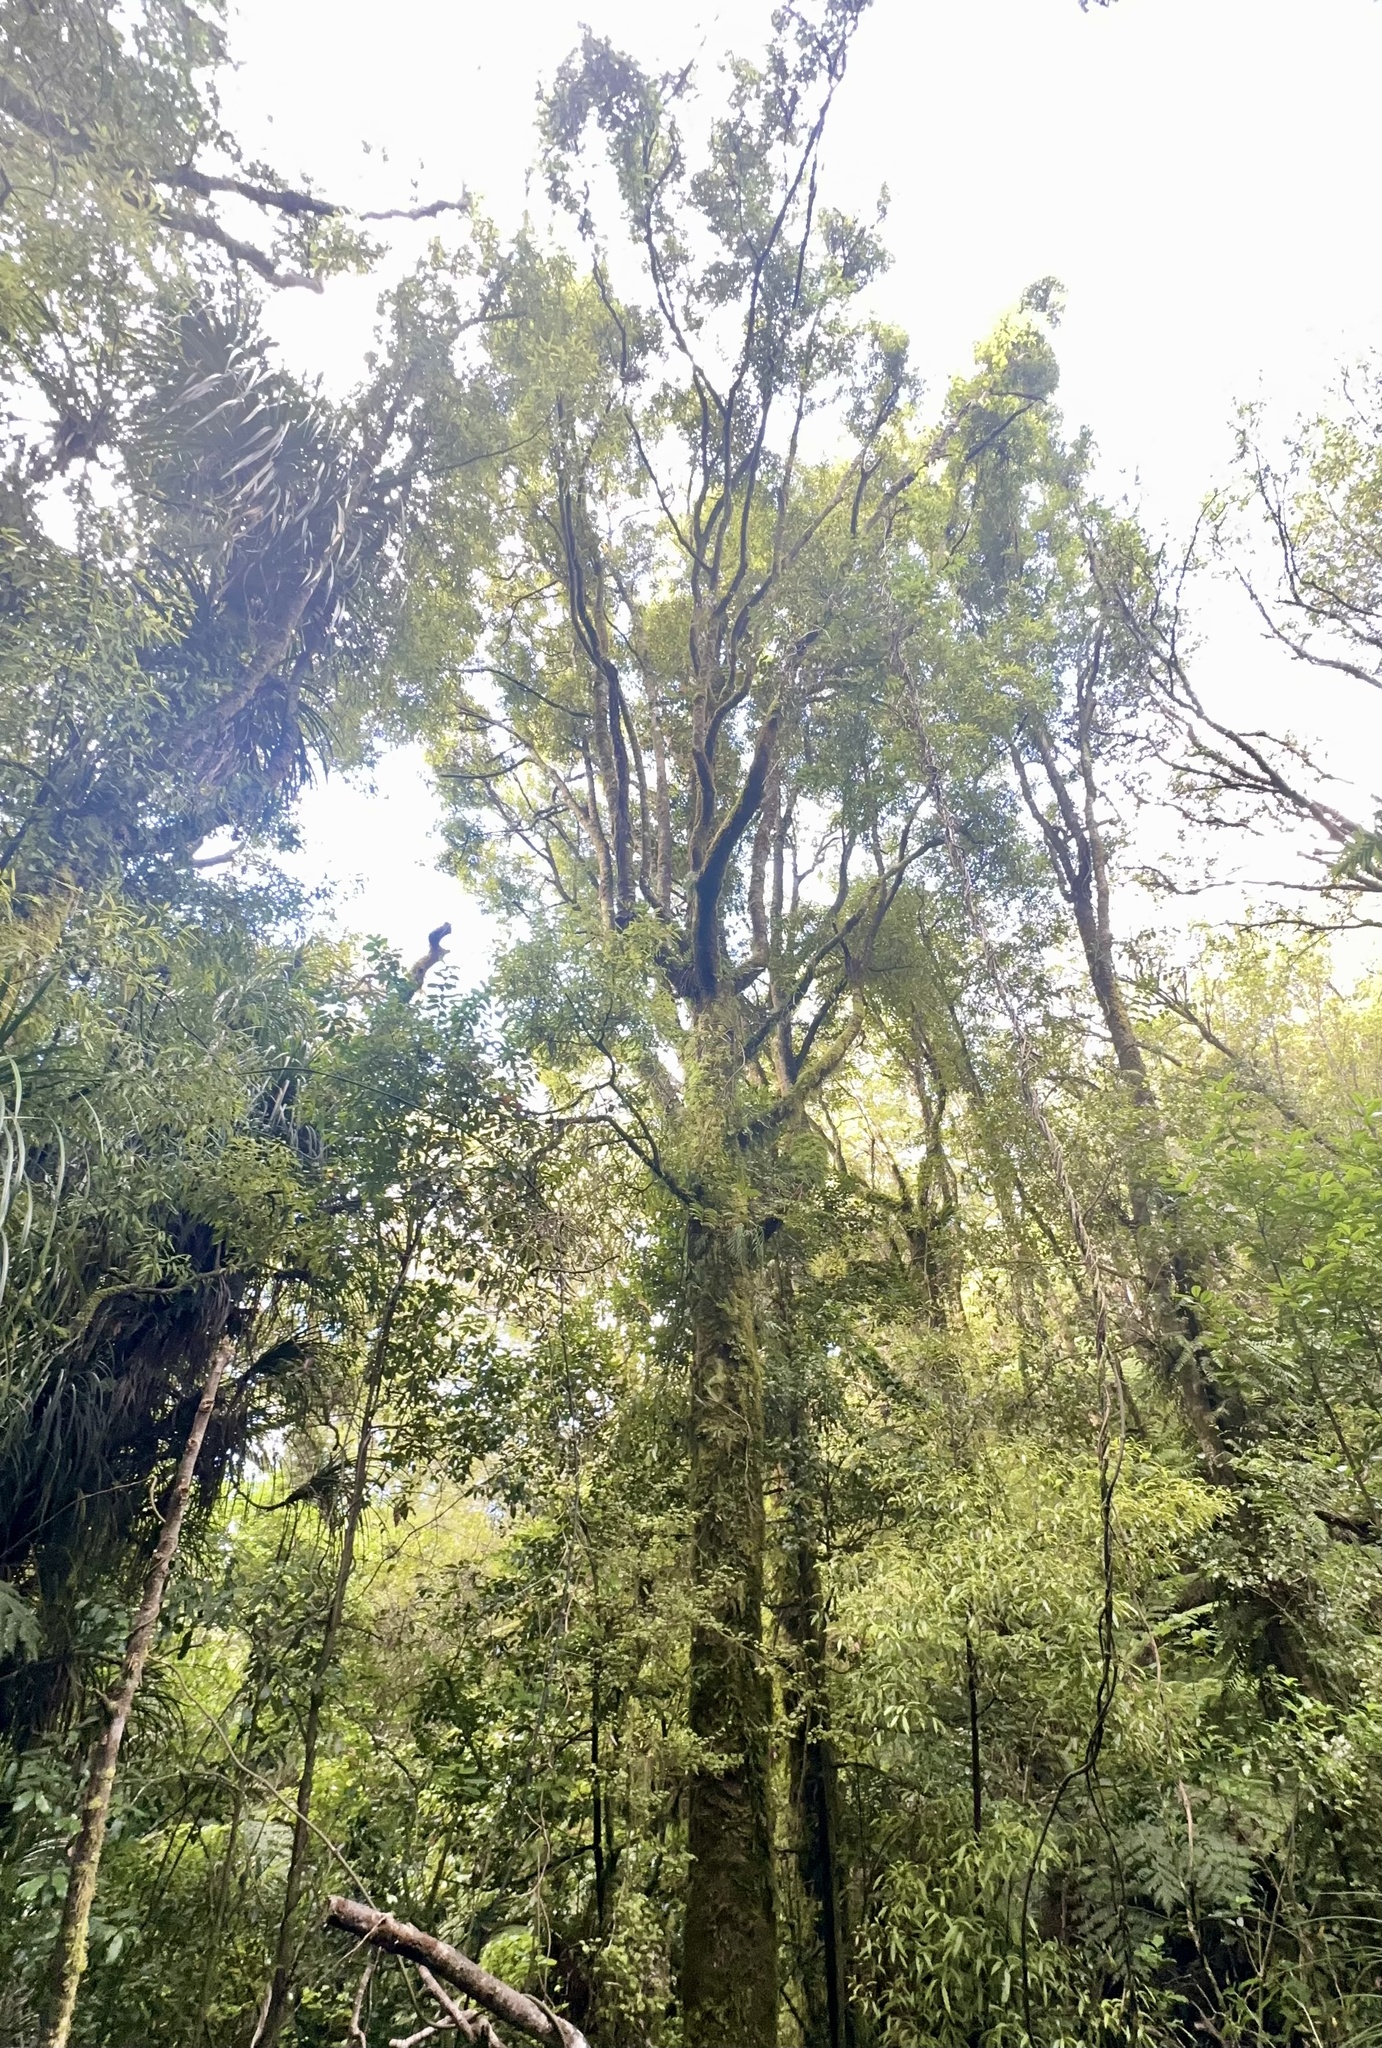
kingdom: Plantae
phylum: Tracheophyta
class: Magnoliopsida
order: Laurales
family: Lauraceae
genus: Beilschmiedia
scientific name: Beilschmiedia tawa
